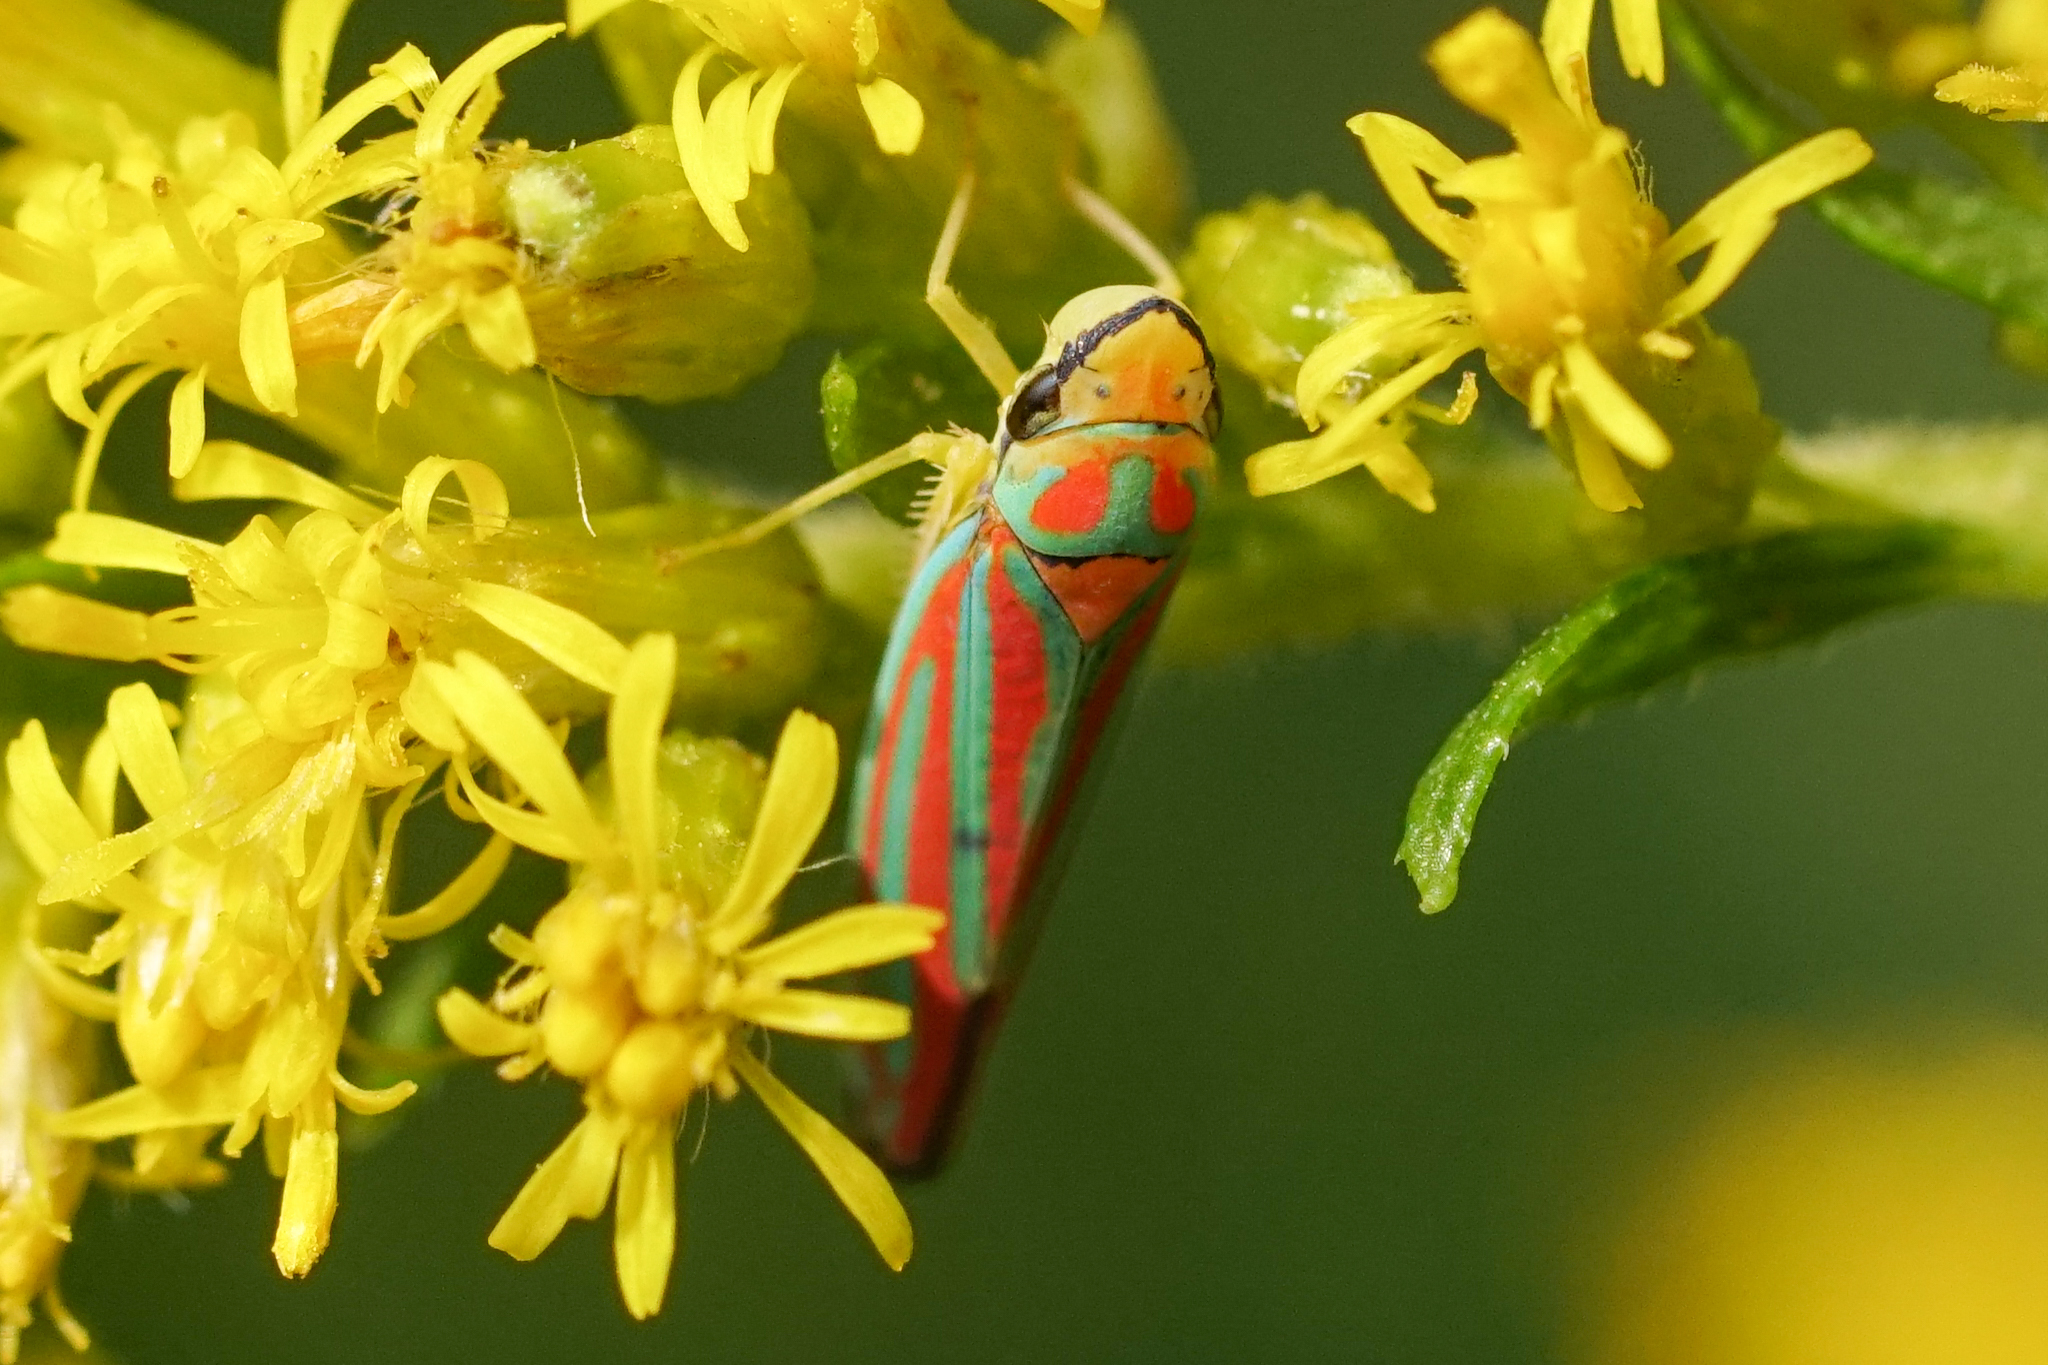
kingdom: Animalia
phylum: Arthropoda
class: Insecta
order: Hemiptera
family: Cicadellidae
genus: Graphocephala
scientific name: Graphocephala coccinea
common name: Candy-striped leafhopper
